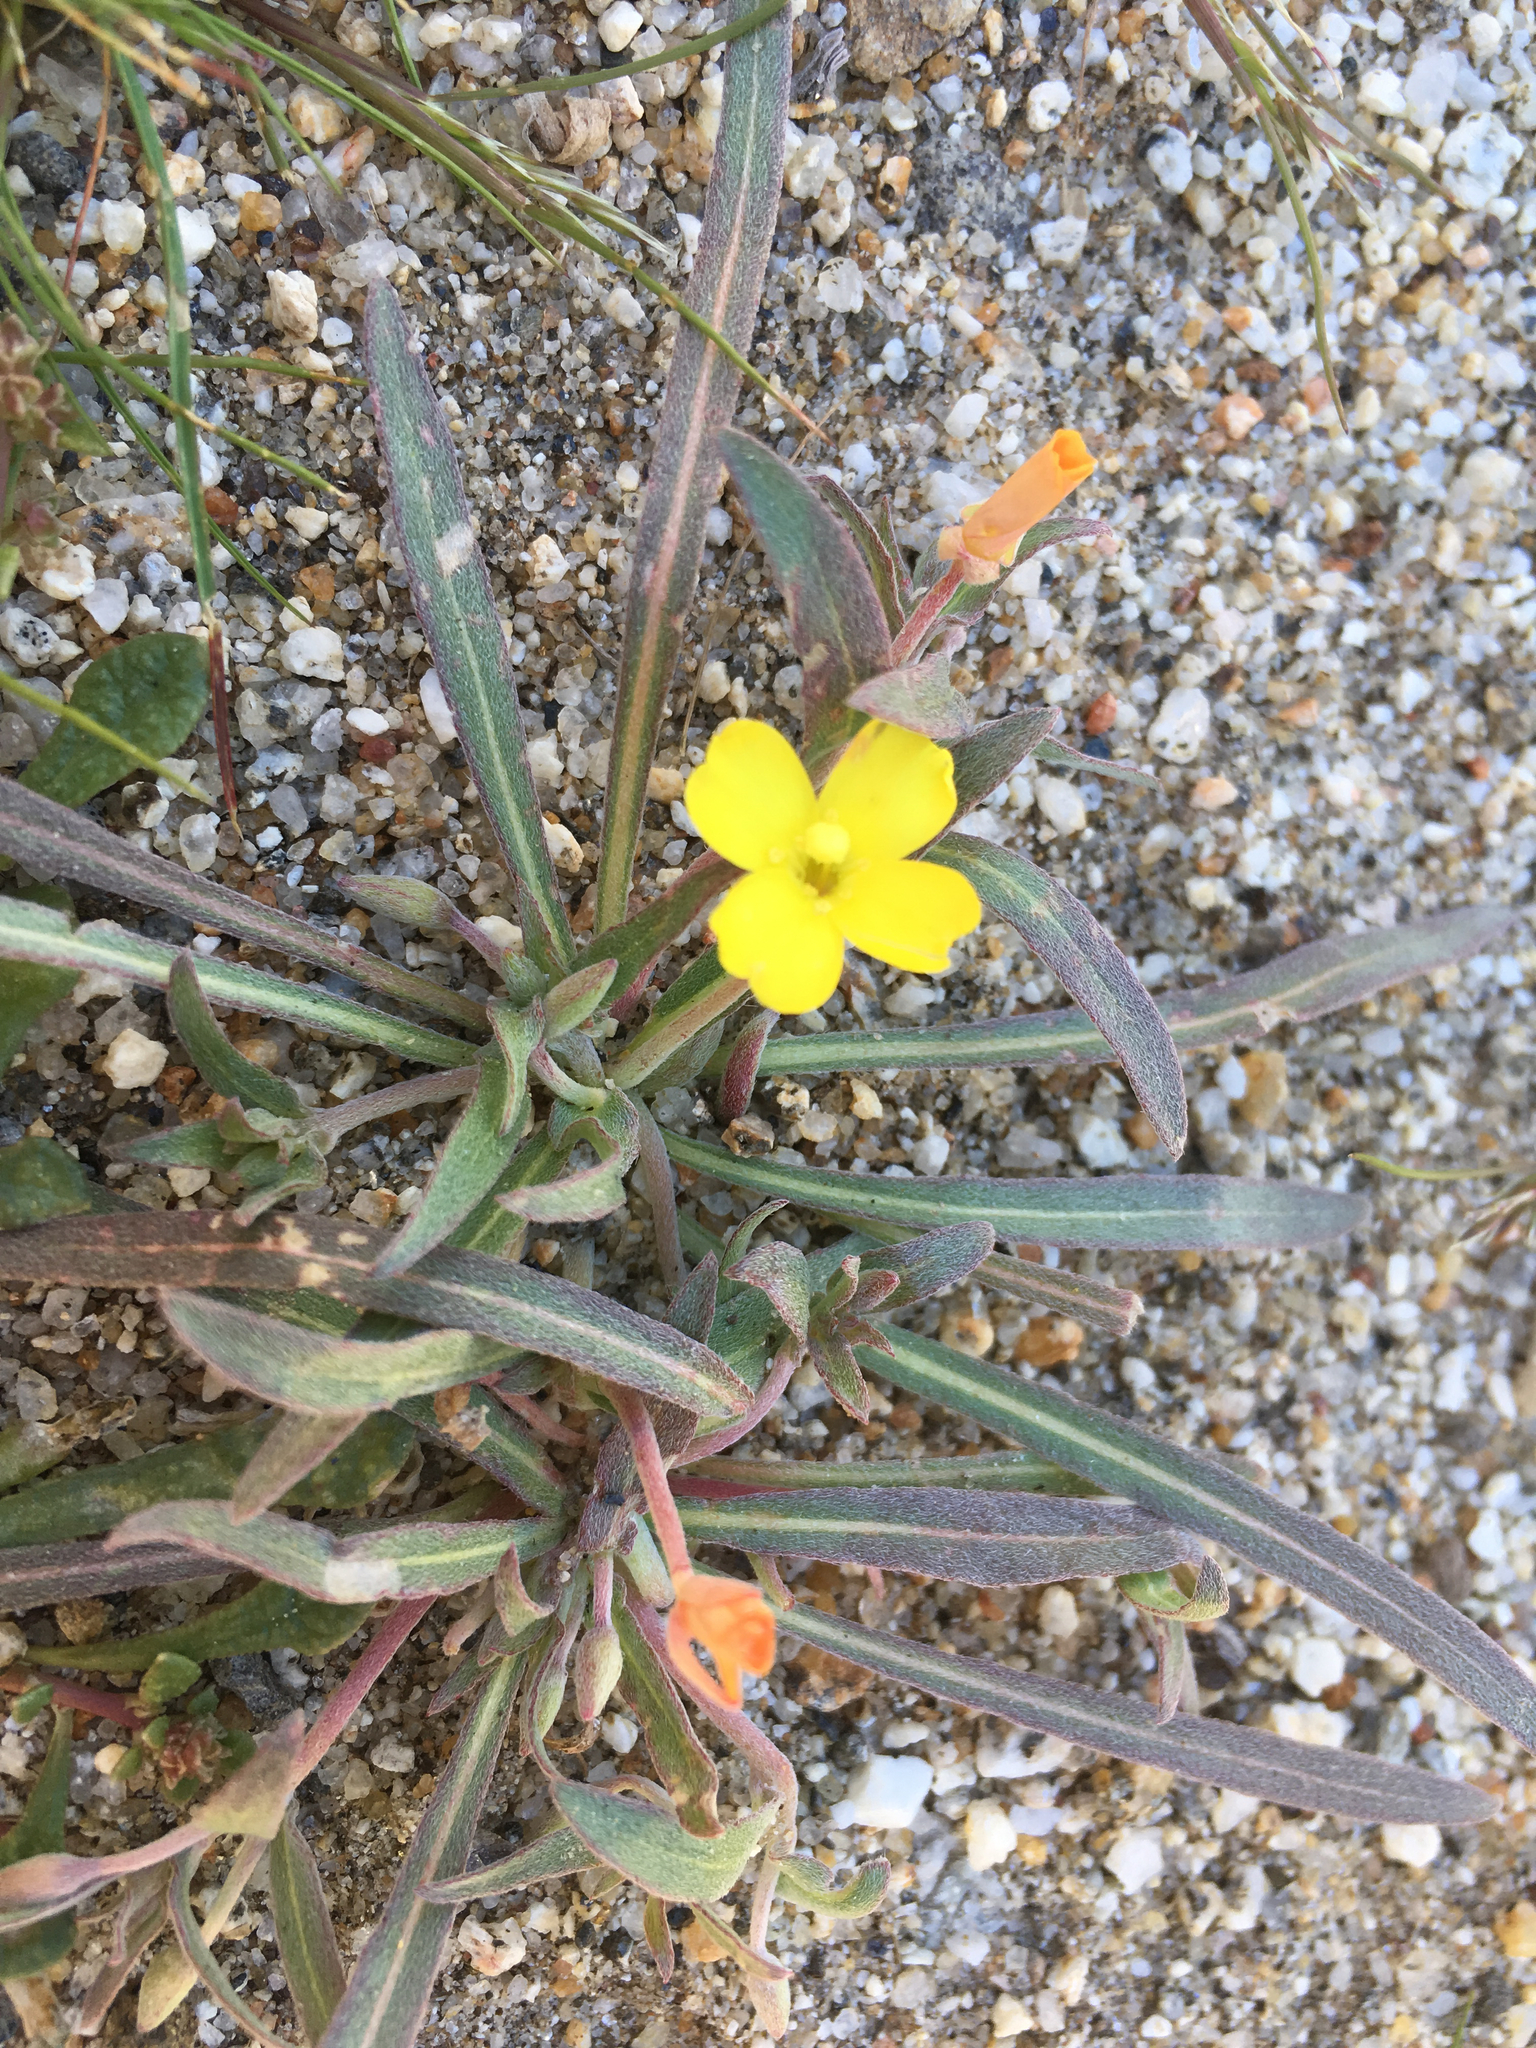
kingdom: Plantae
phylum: Tracheophyta
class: Magnoliopsida
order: Myrtales
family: Onagraceae
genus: Camissoniopsis
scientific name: Camissoniopsis pallida
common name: Paleyellow suncup
